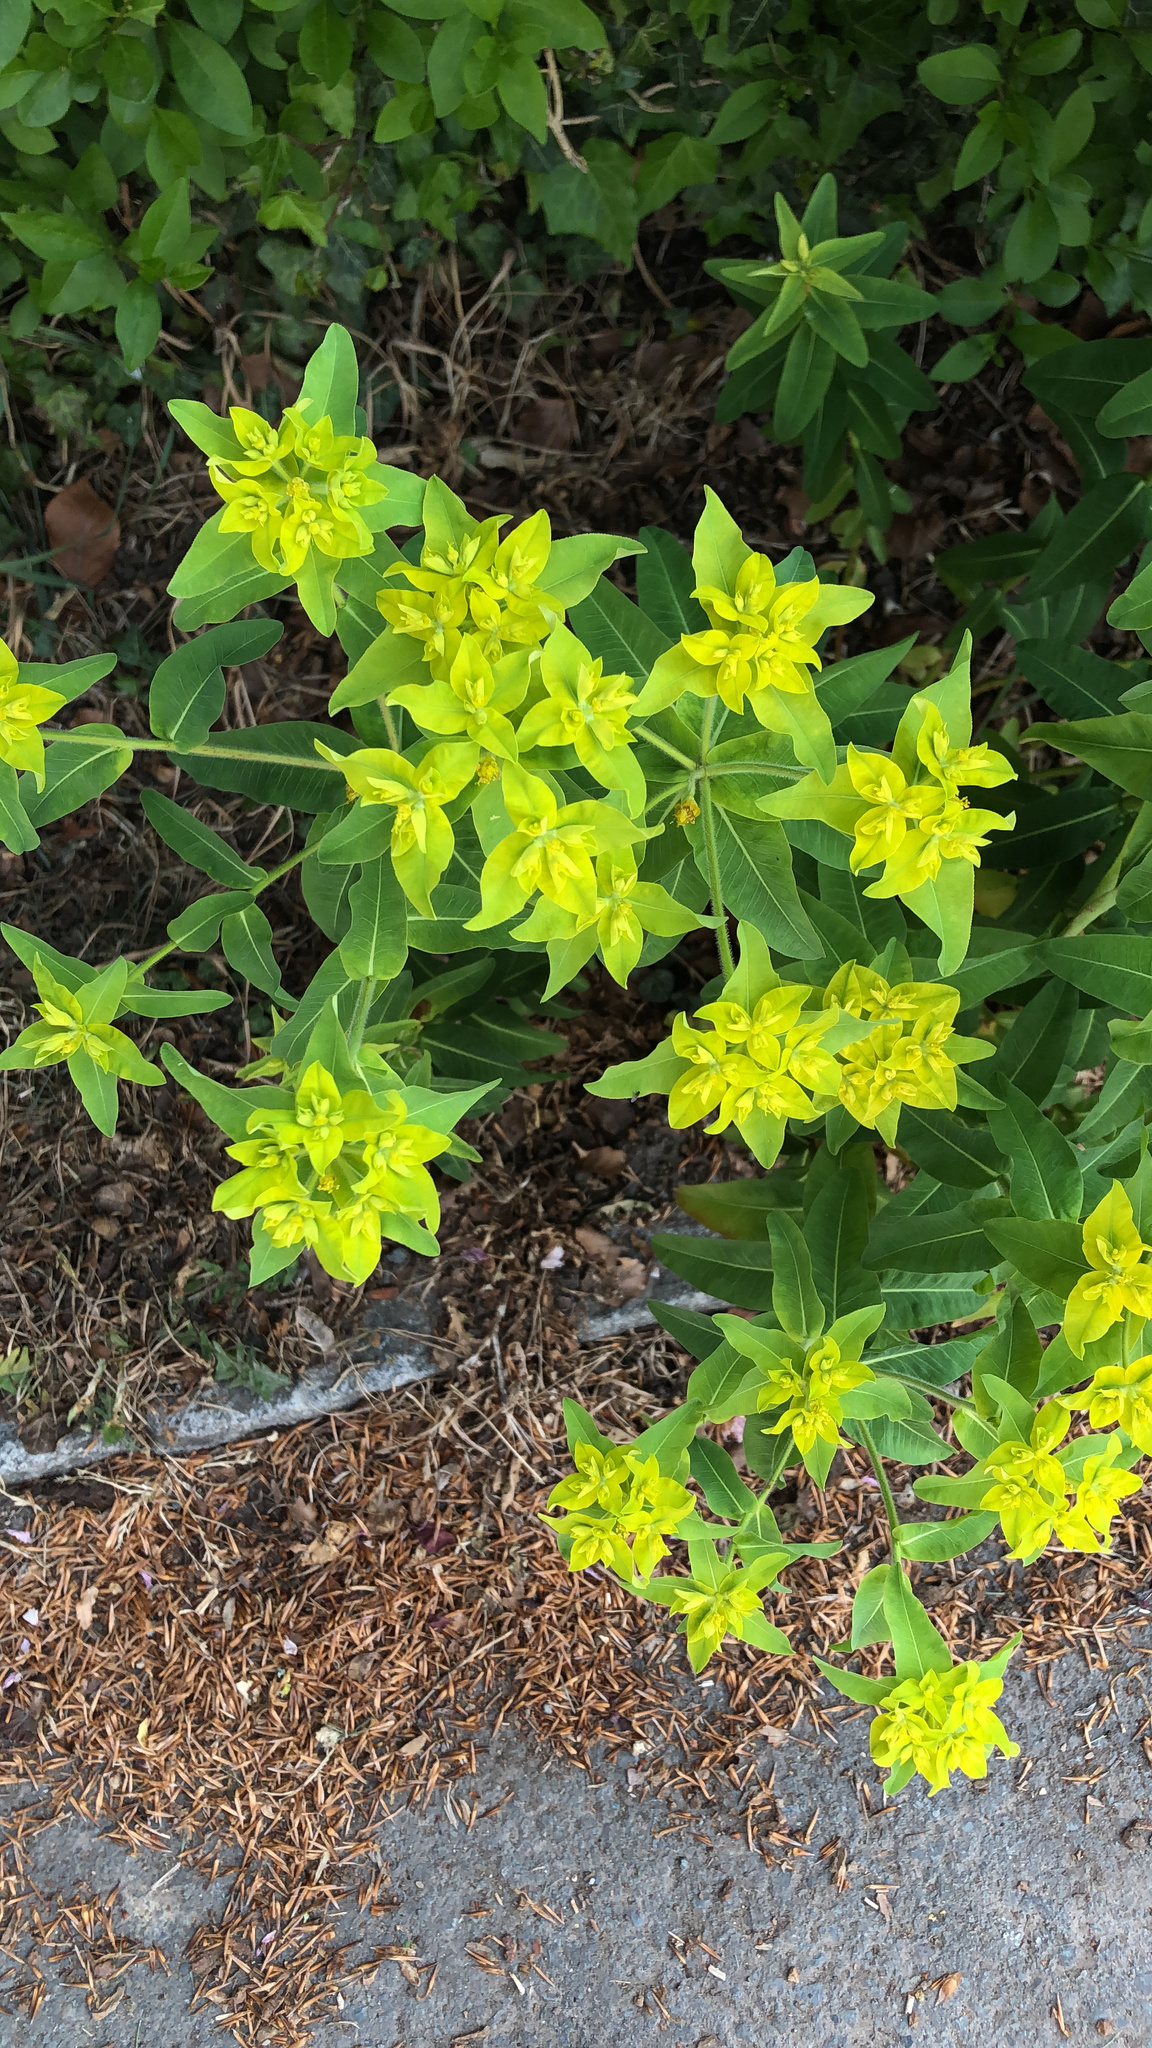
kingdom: Plantae
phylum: Tracheophyta
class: Magnoliopsida
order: Malpighiales
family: Euphorbiaceae
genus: Euphorbia
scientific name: Euphorbia oblongata
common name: Balkan spurge
